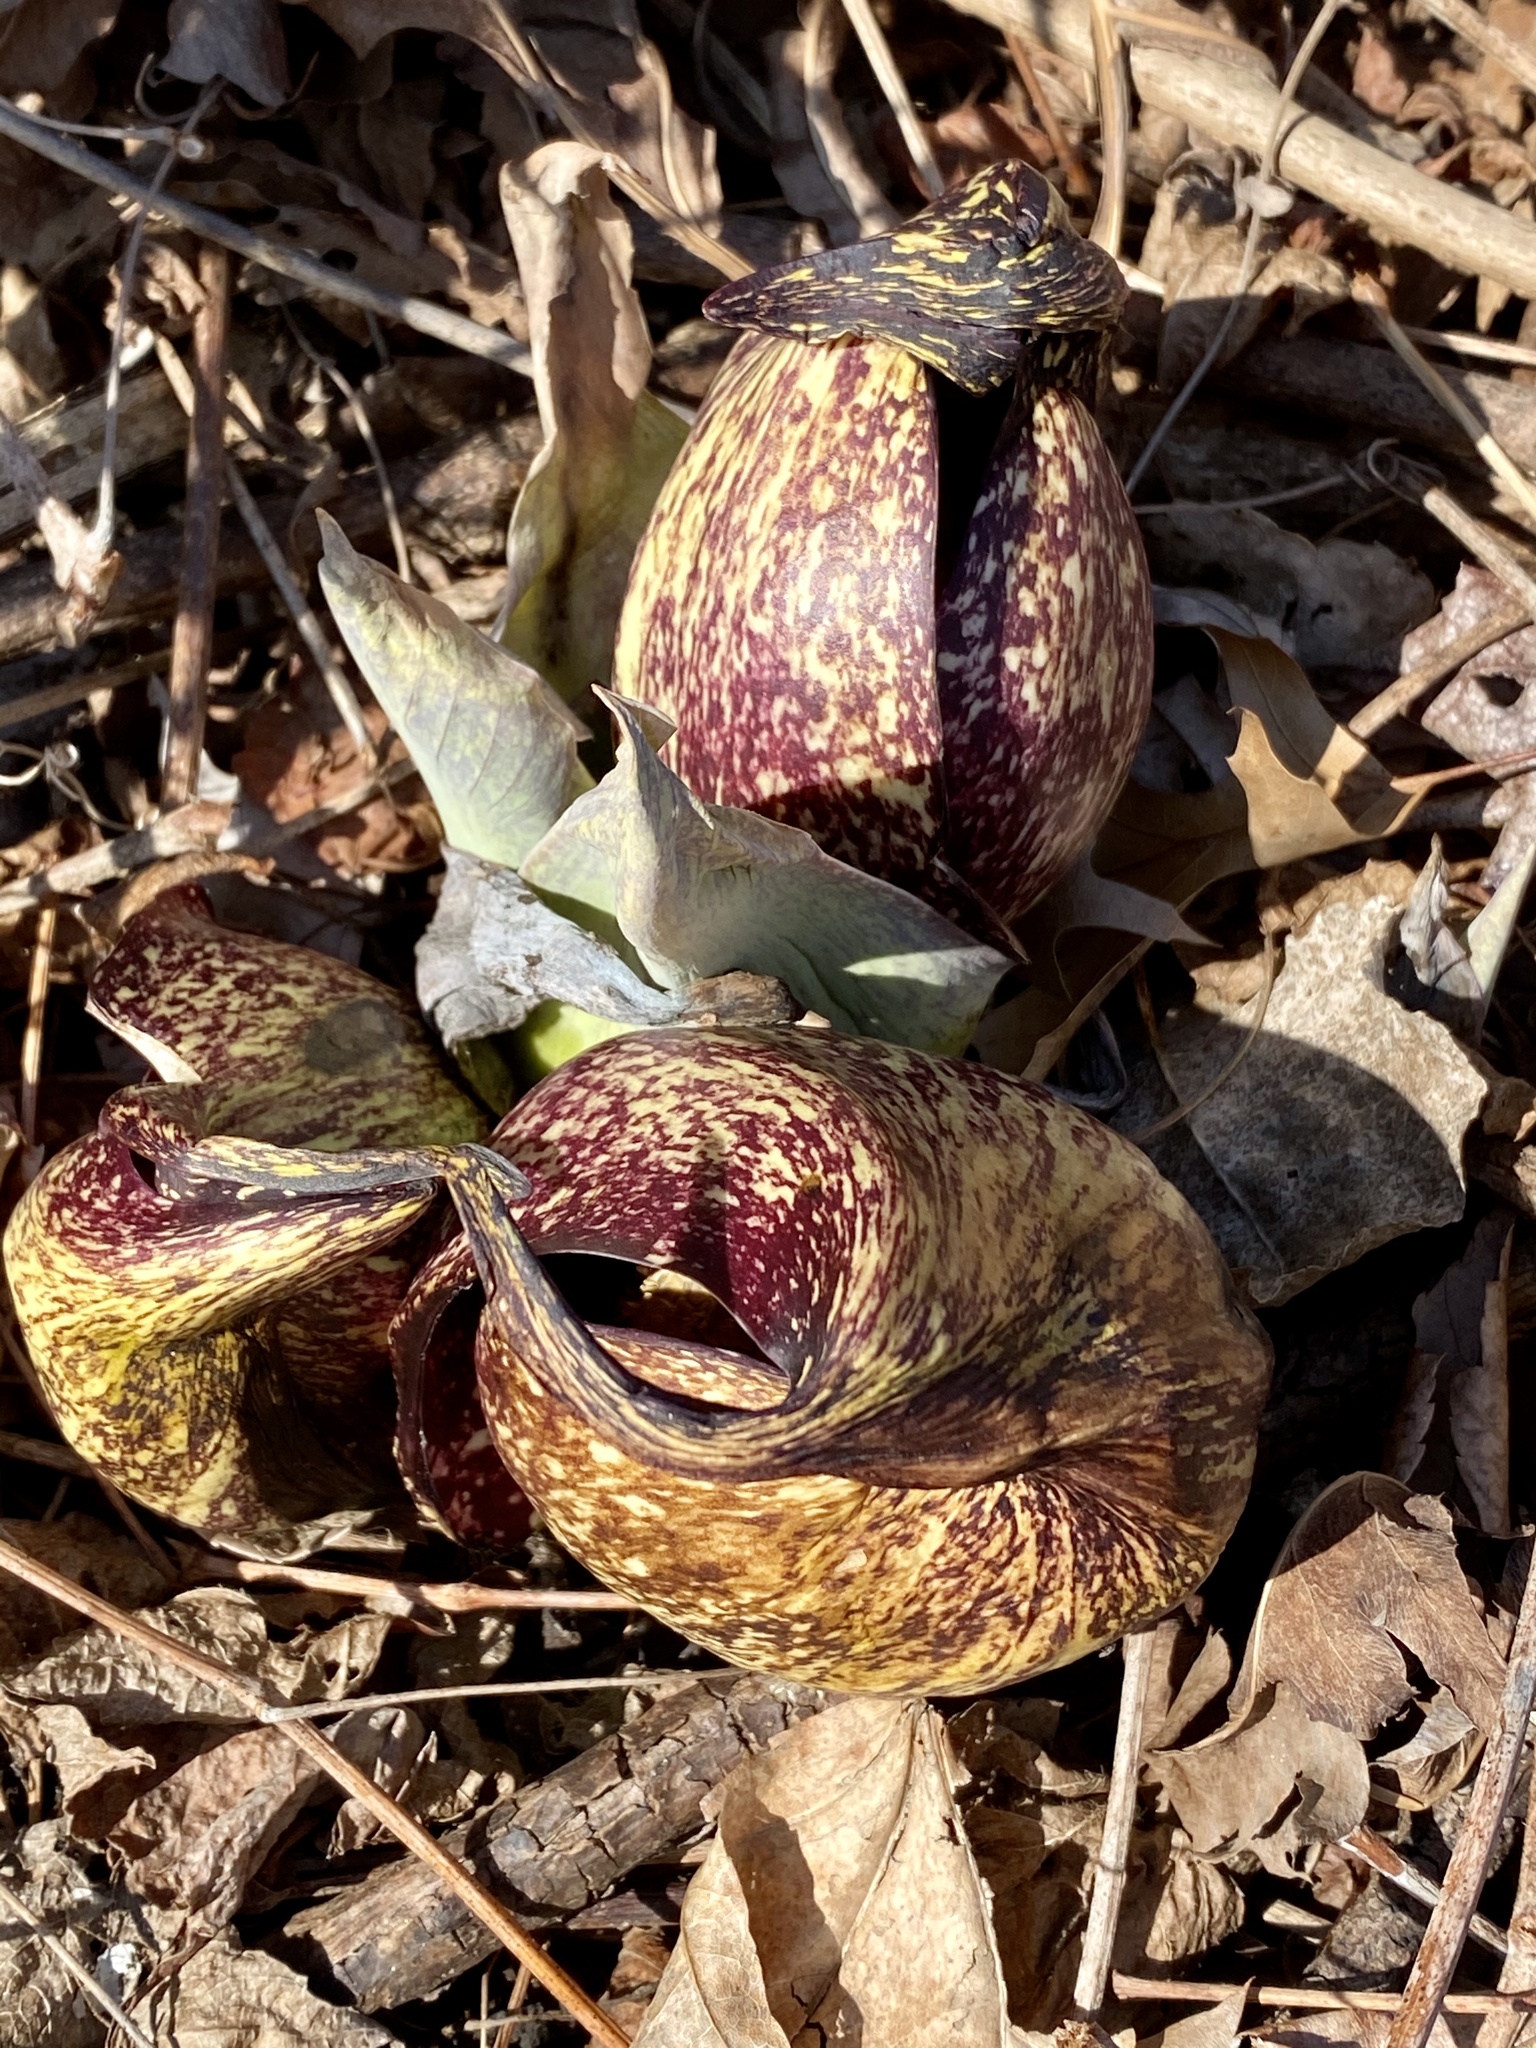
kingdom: Plantae
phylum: Tracheophyta
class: Liliopsida
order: Alismatales
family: Araceae
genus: Symplocarpus
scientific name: Symplocarpus foetidus
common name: Eastern skunk cabbage
